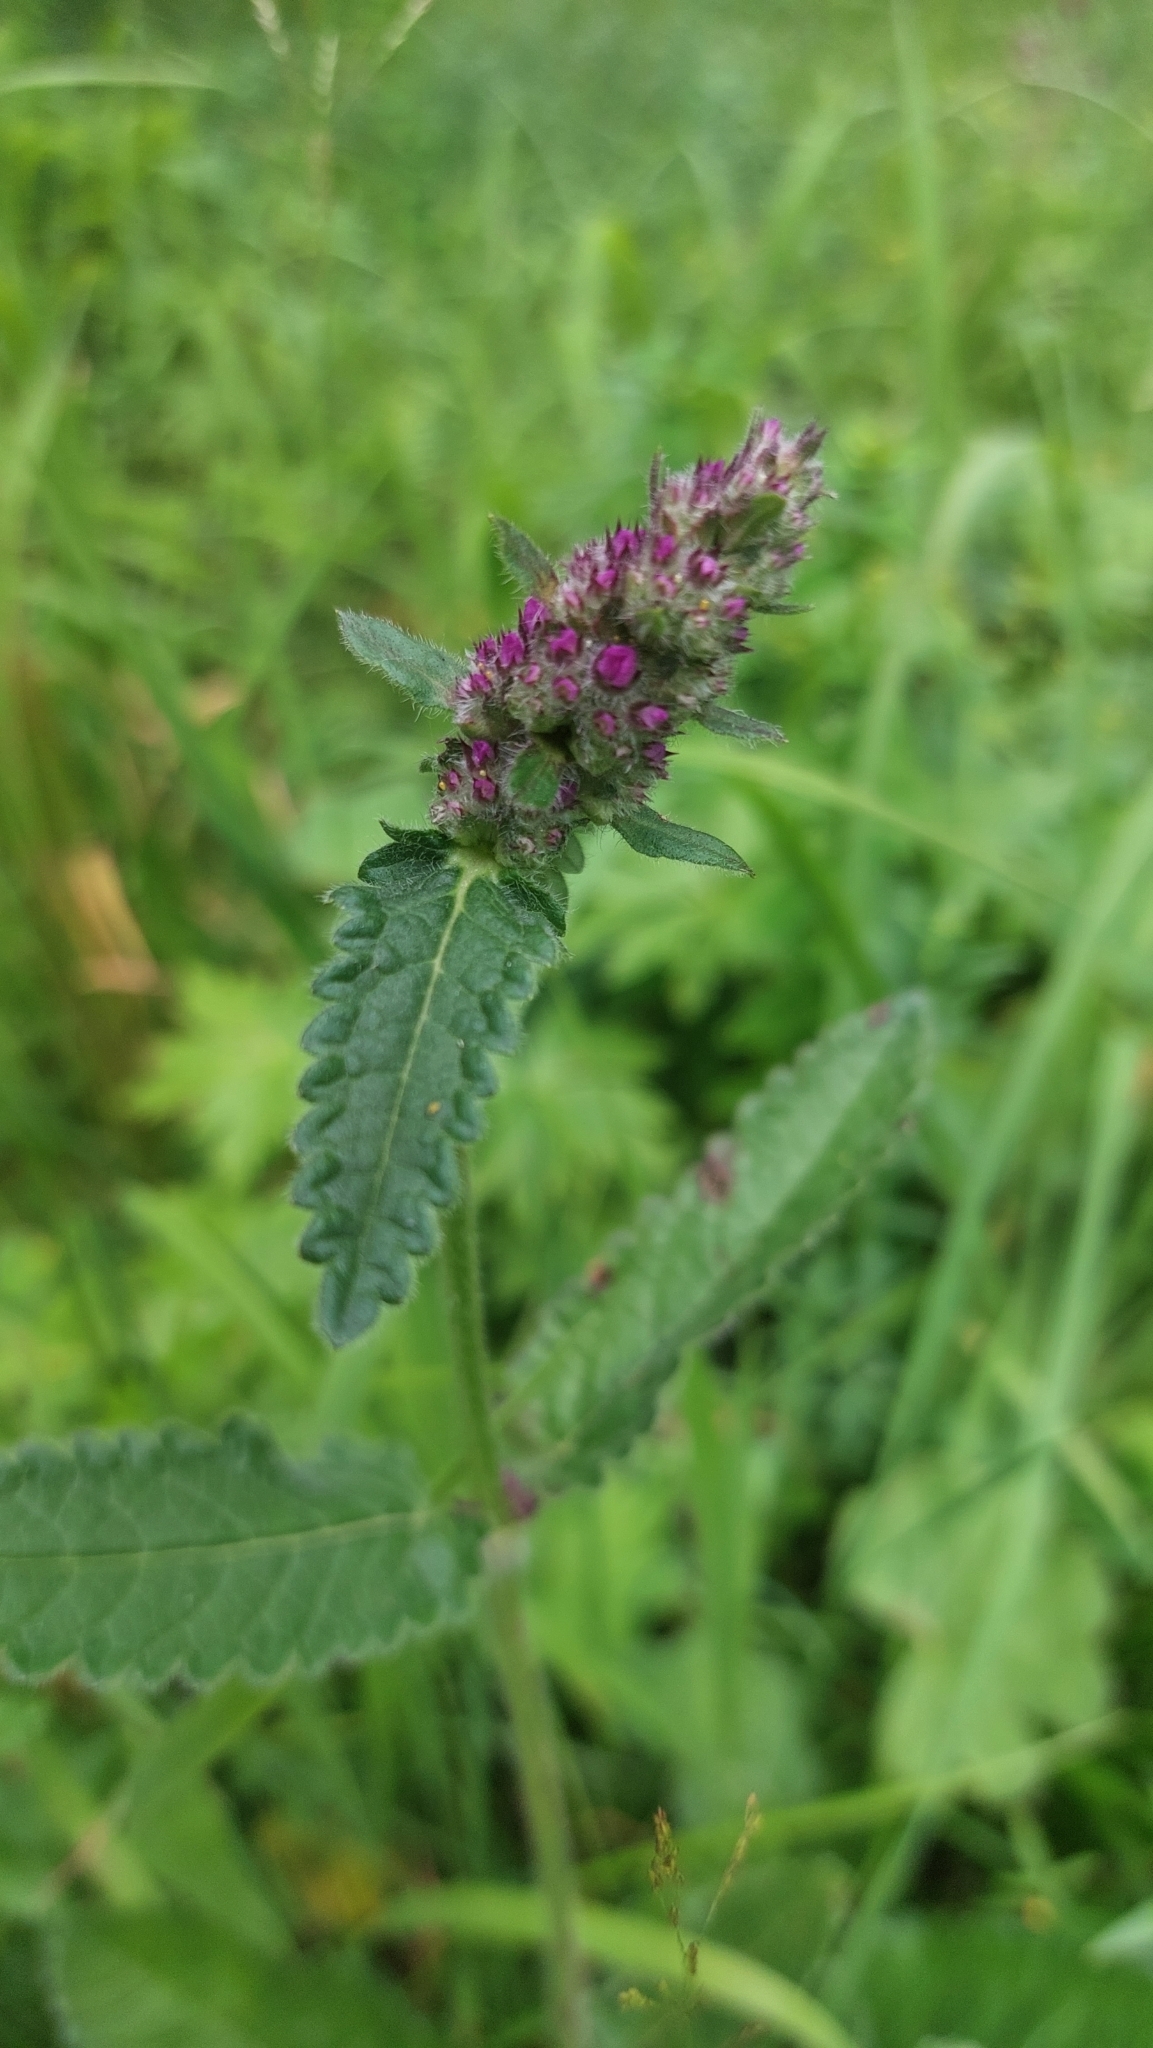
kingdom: Plantae
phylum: Tracheophyta
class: Magnoliopsida
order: Lamiales
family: Lamiaceae
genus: Betonica
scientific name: Betonica officinalis
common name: Bishop's-wort
